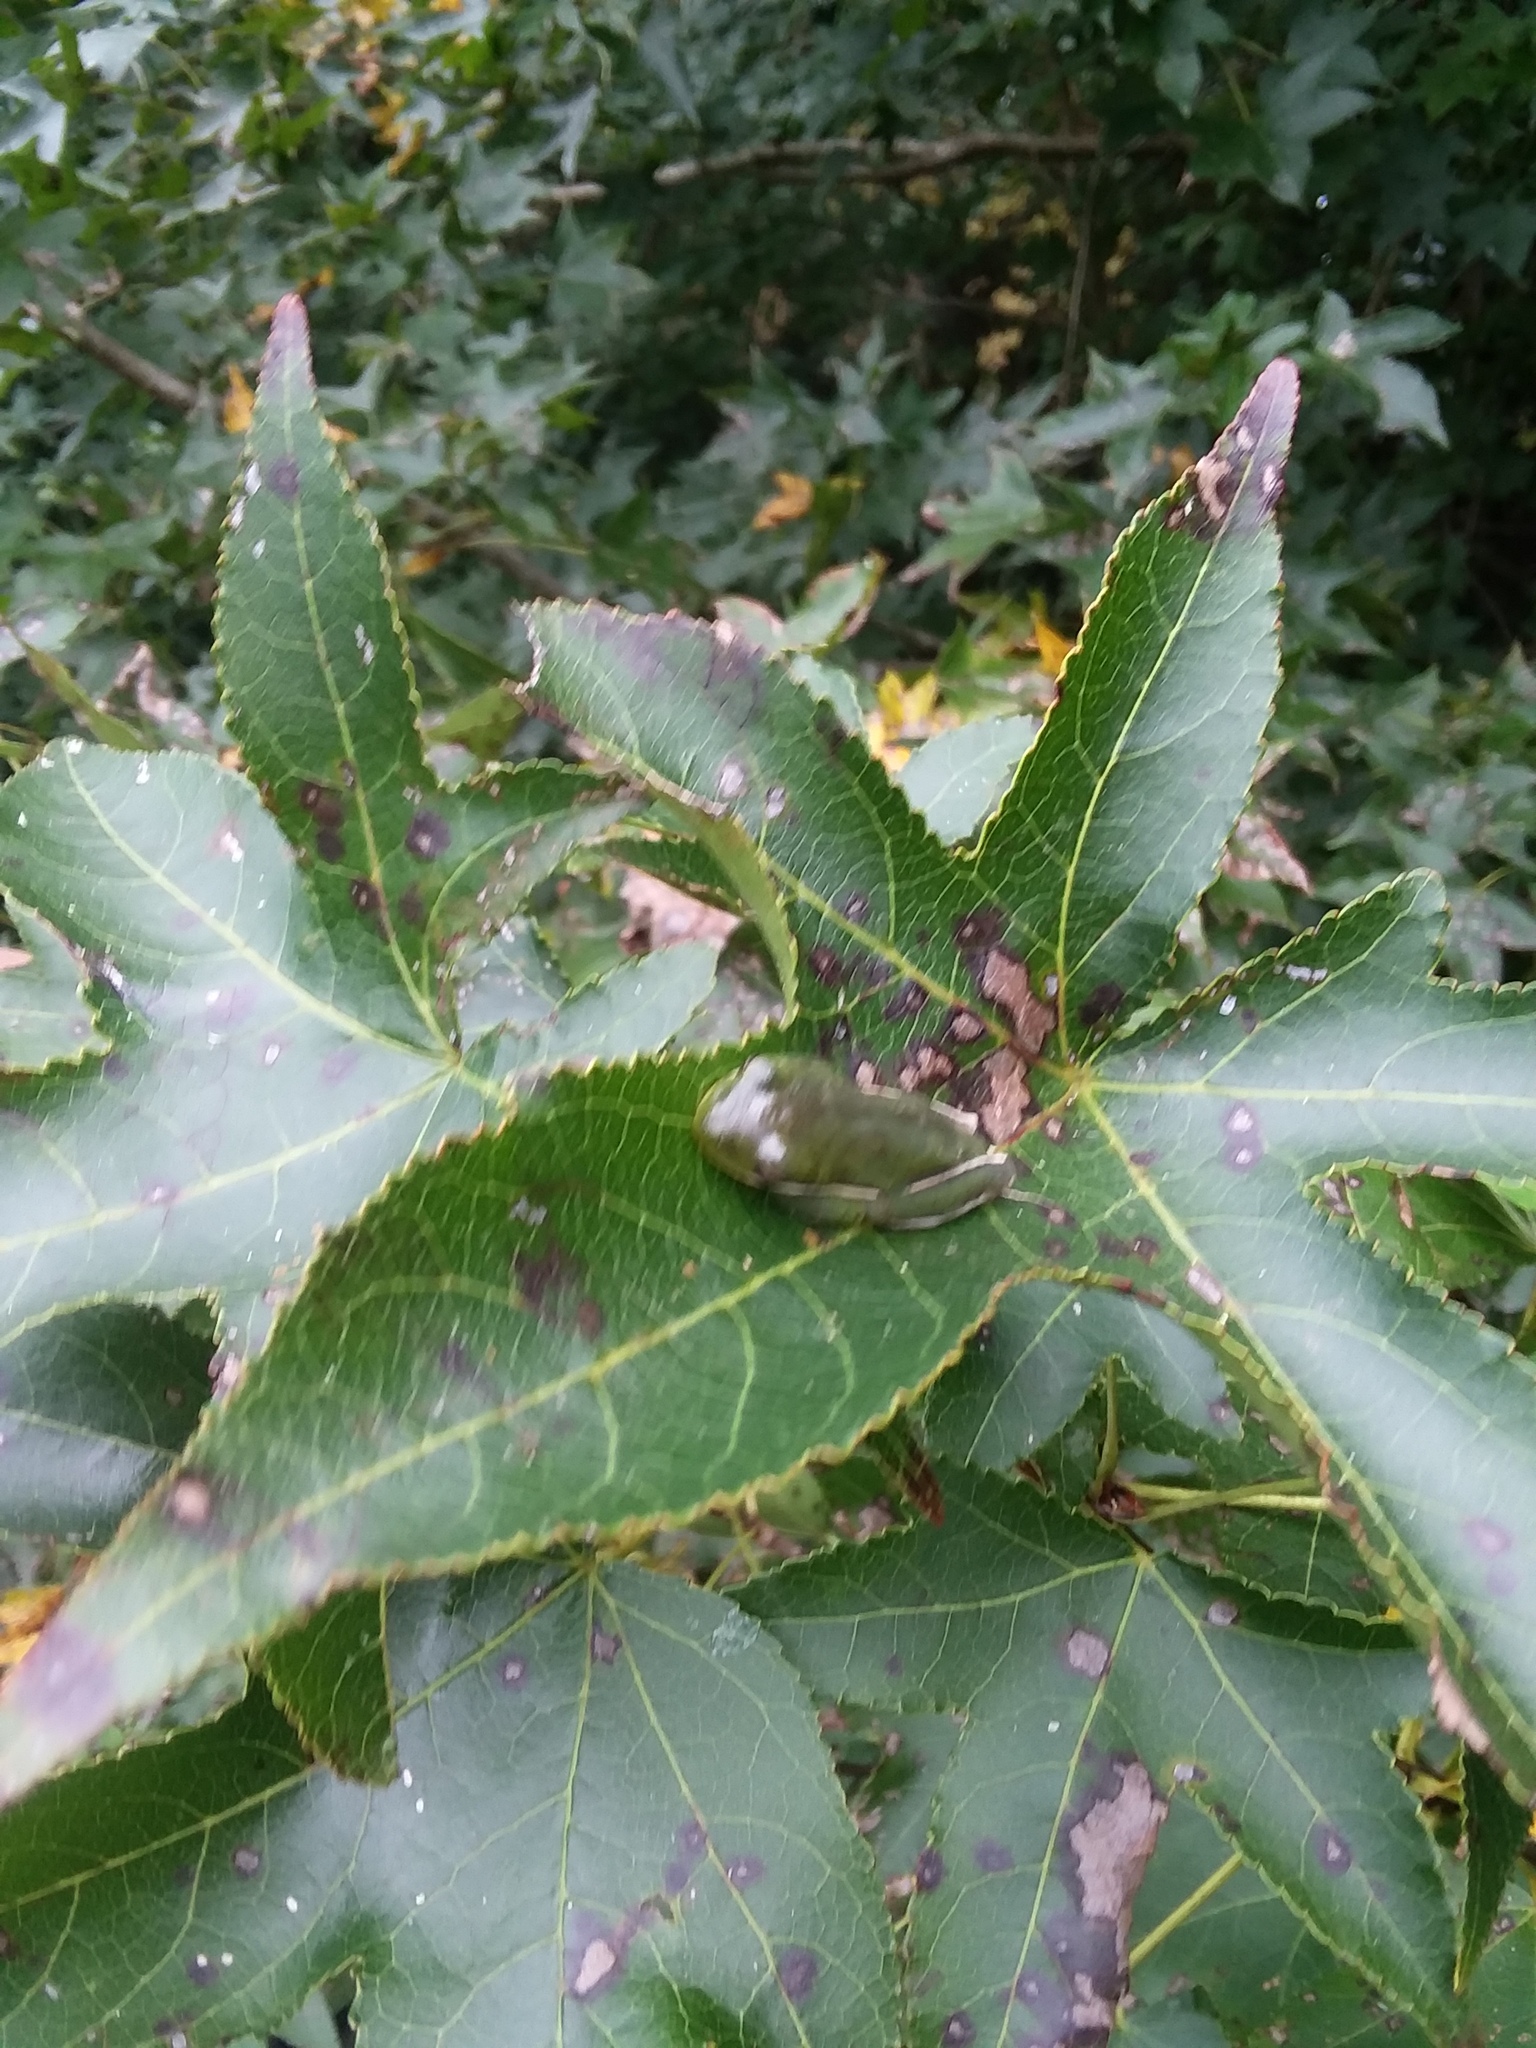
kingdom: Animalia
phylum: Chordata
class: Amphibia
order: Anura
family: Hylidae
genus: Dryophytes
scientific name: Dryophytes cinereus
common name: Green treefrog
